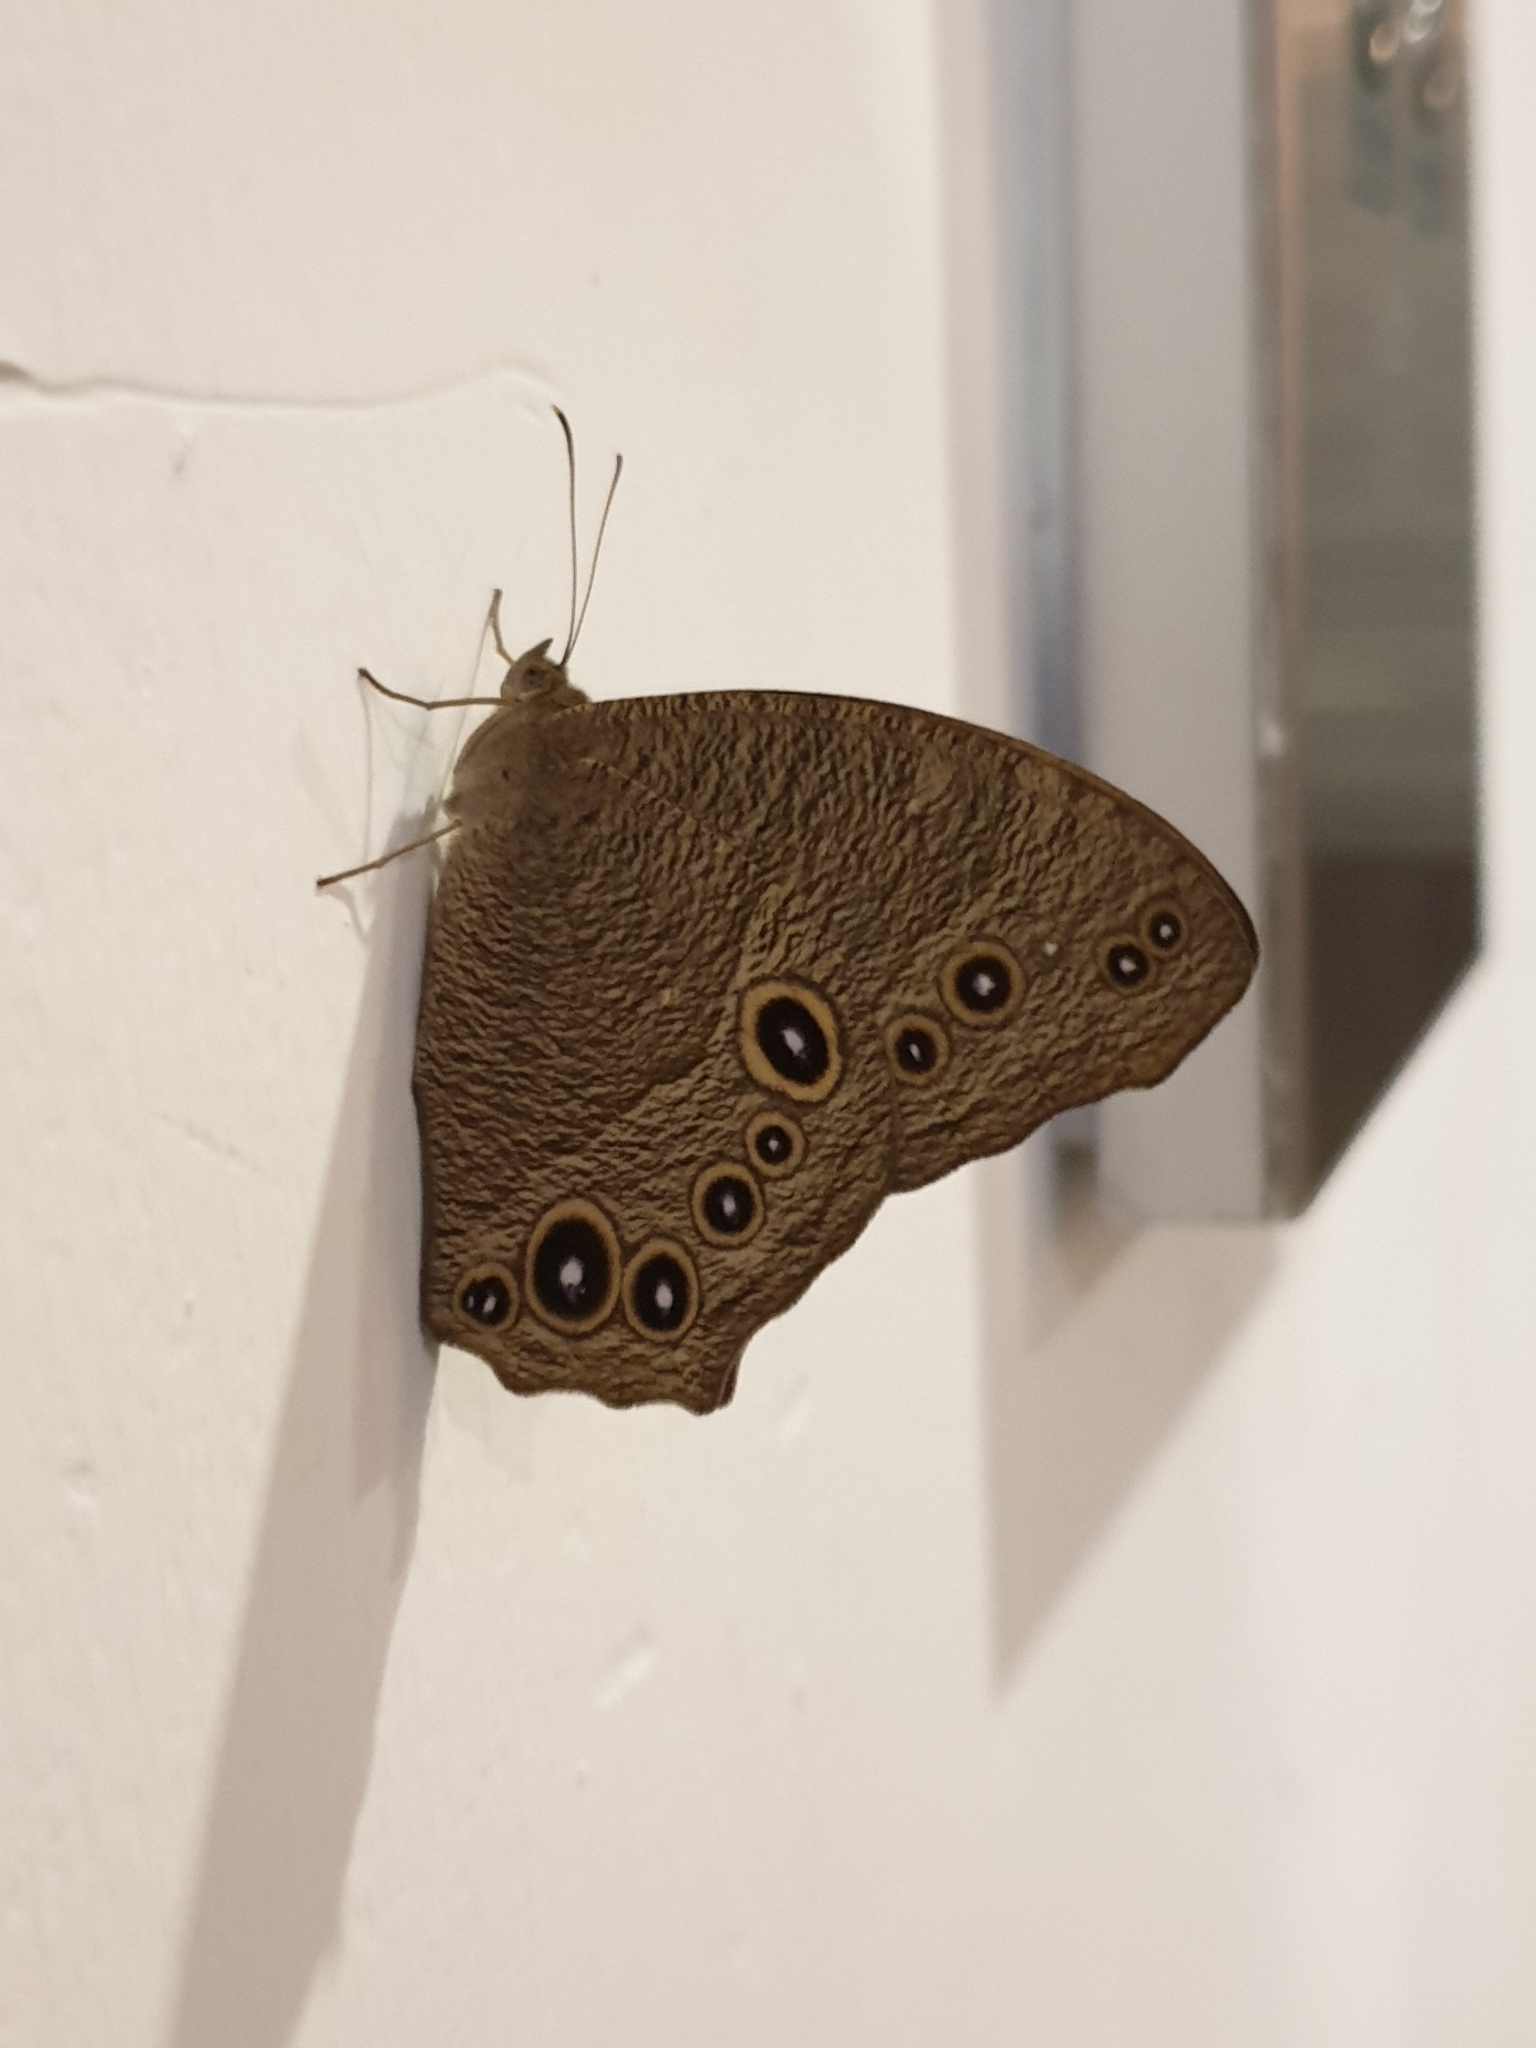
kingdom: Animalia
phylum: Arthropoda
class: Insecta
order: Lepidoptera
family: Nymphalidae
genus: Melanitis
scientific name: Melanitis leda
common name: Twilight brown
